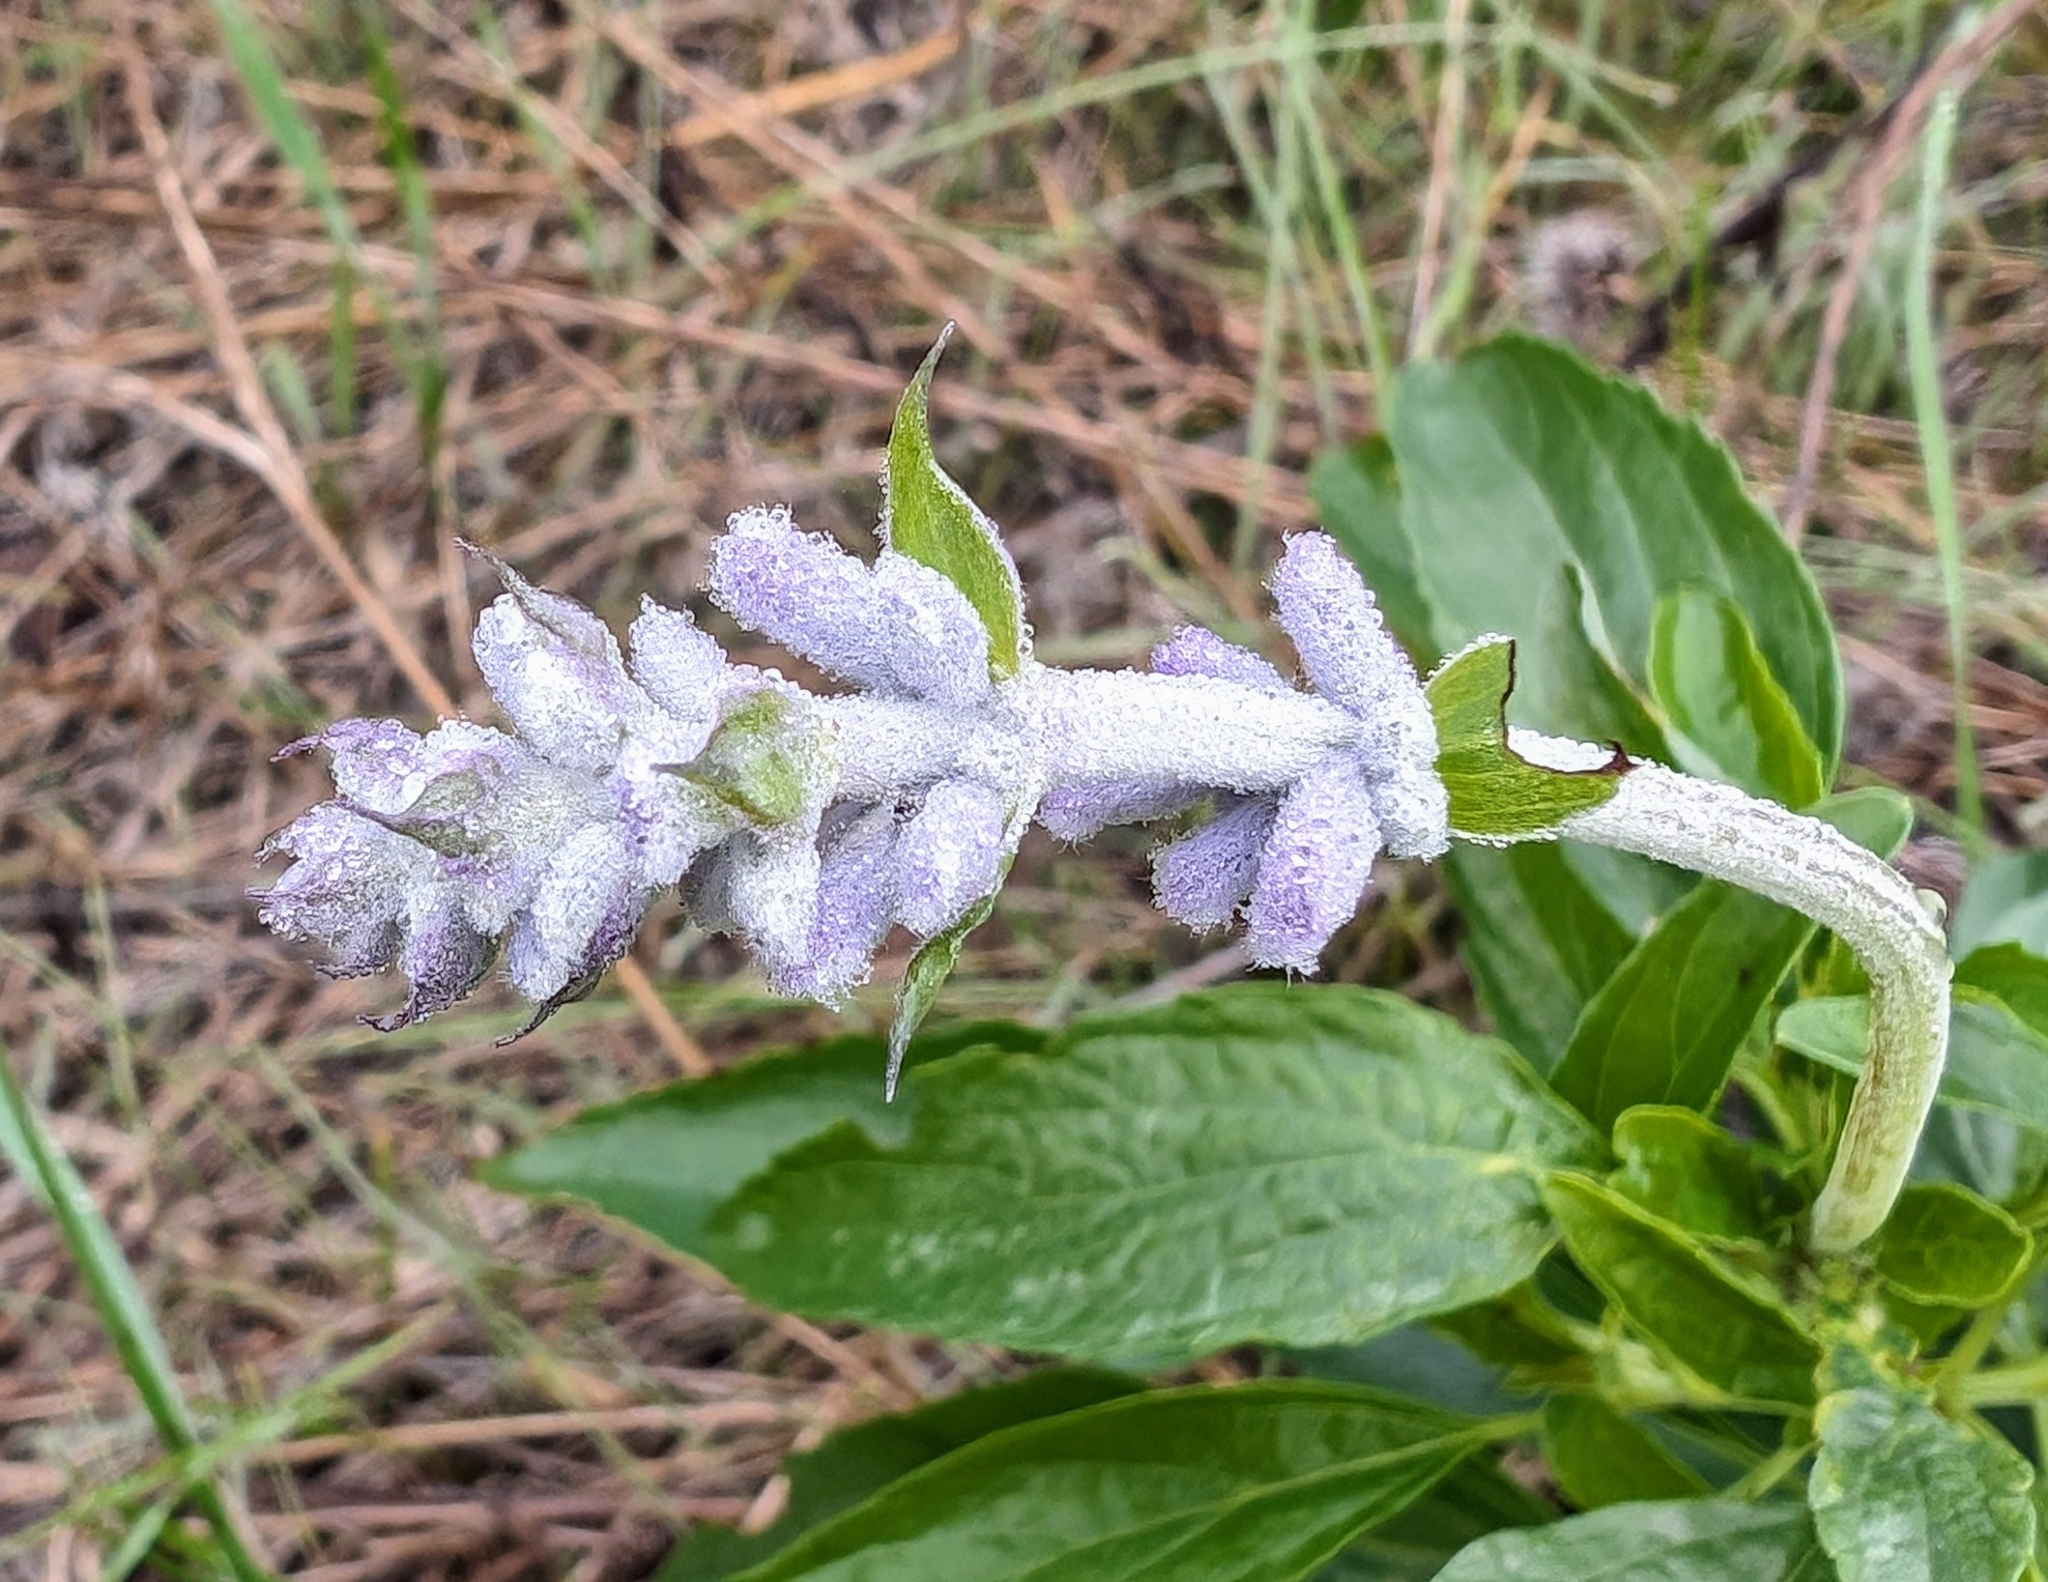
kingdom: Plantae
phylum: Tracheophyta
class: Magnoliopsida
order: Lamiales
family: Lamiaceae
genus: Salvia
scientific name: Salvia farinacea
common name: Mealy sage
